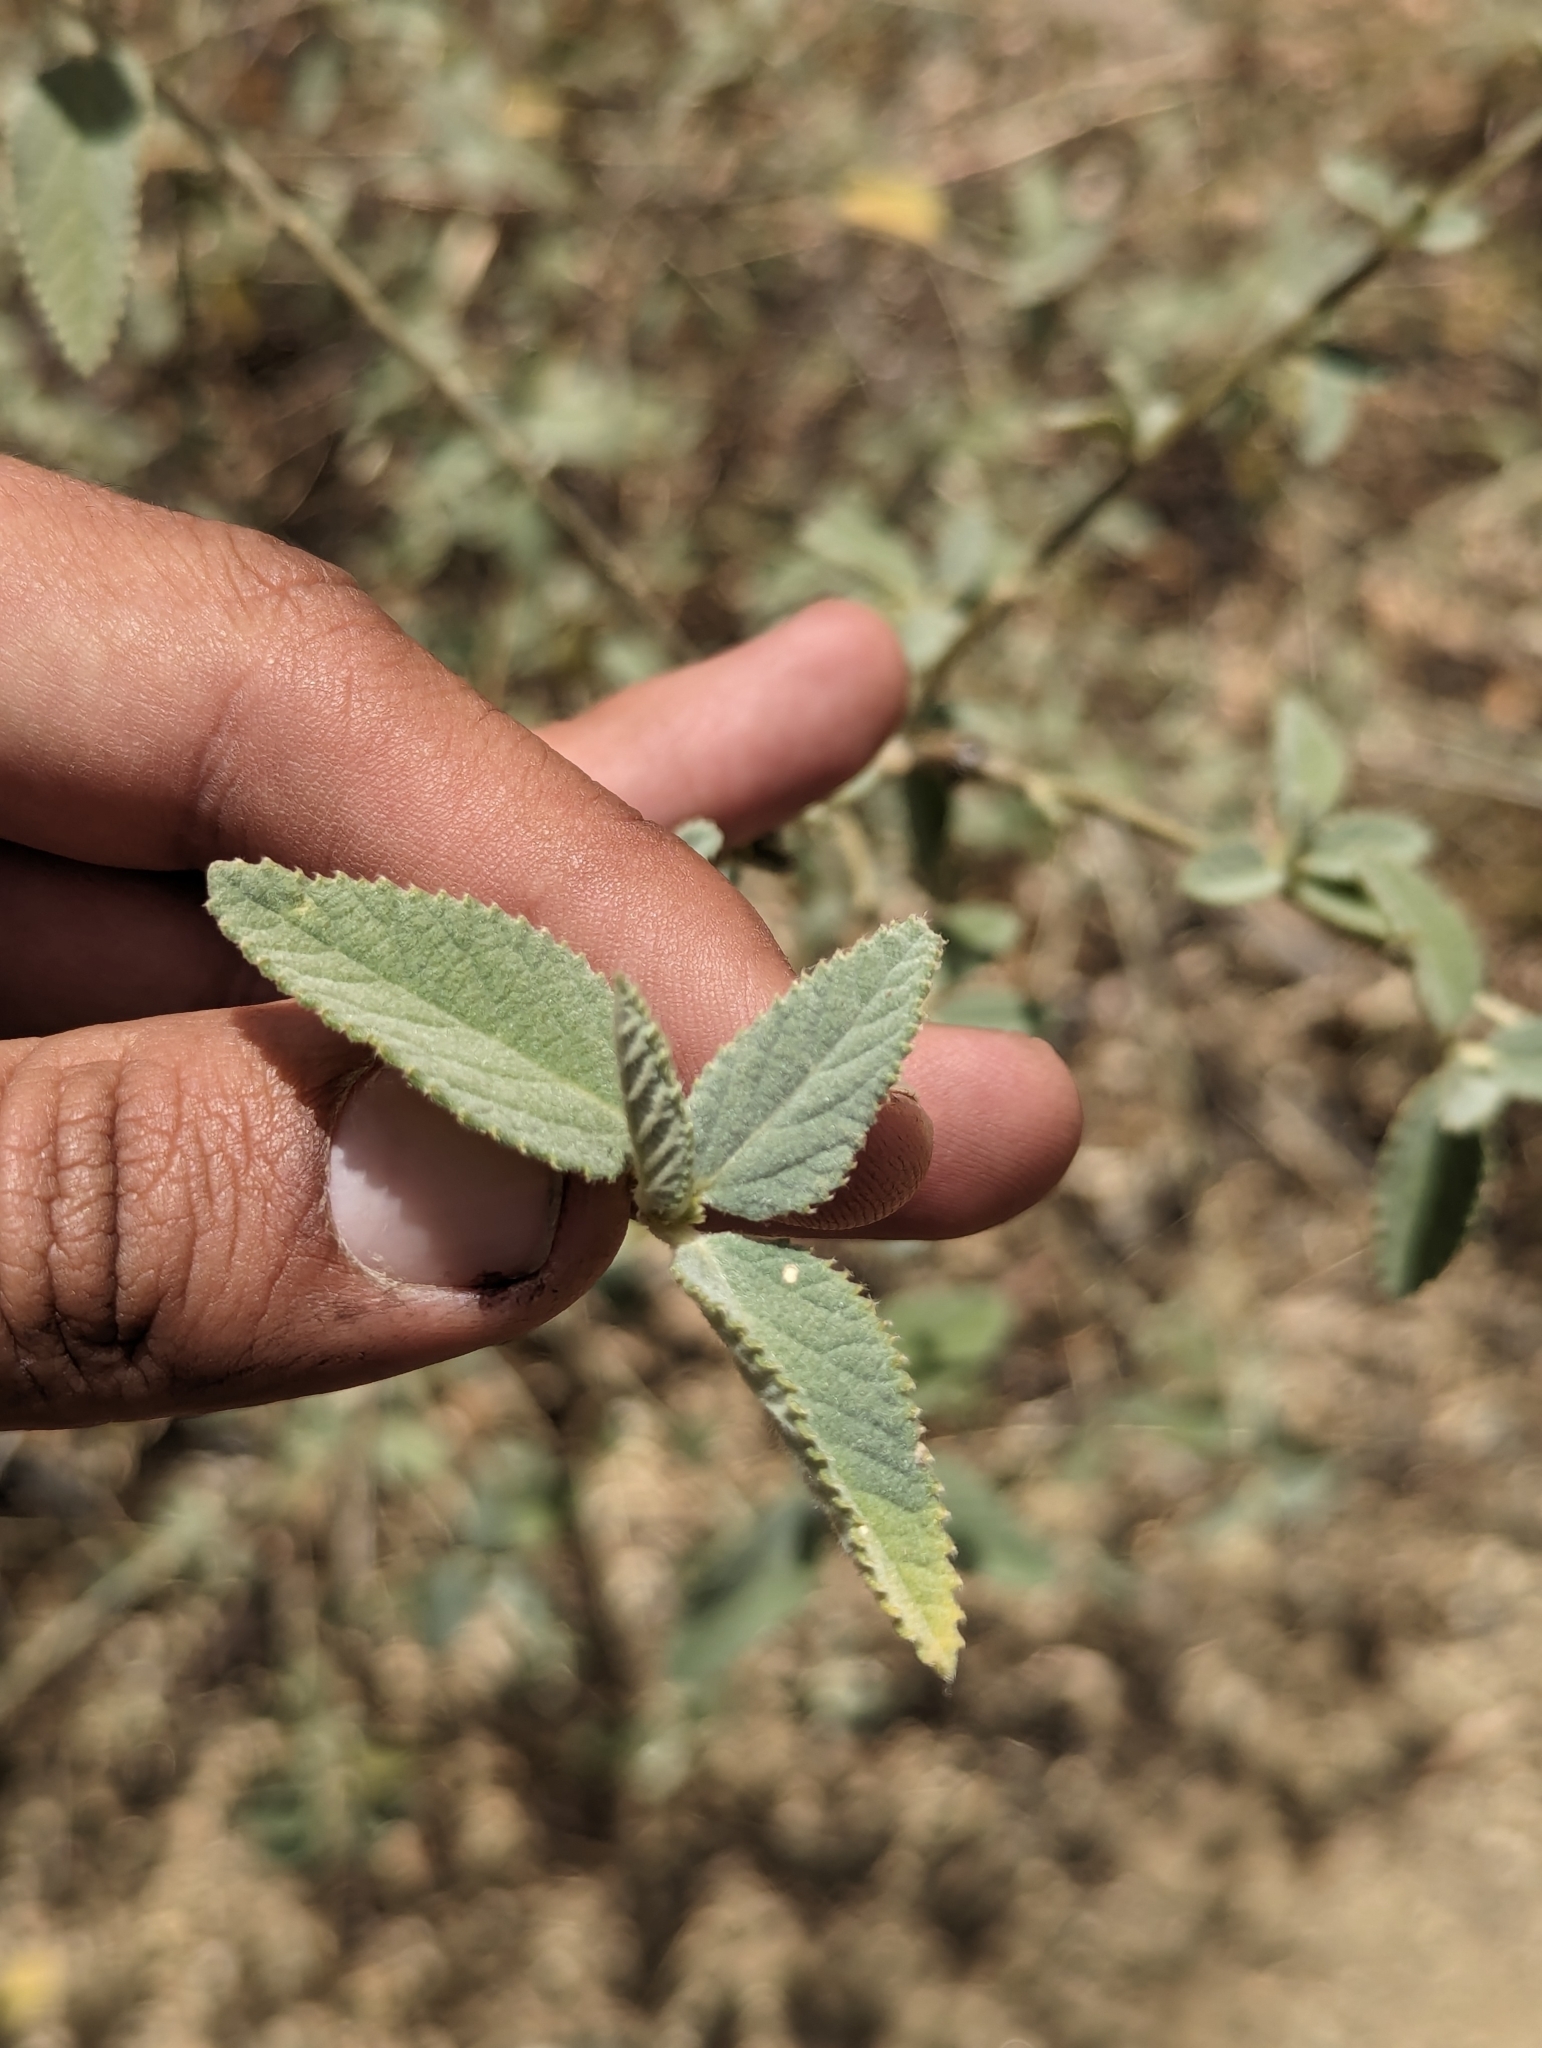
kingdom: Plantae
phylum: Tracheophyta
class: Magnoliopsida
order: Malpighiales
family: Euphorbiaceae
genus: Bernardia
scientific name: Bernardia lagunensis
